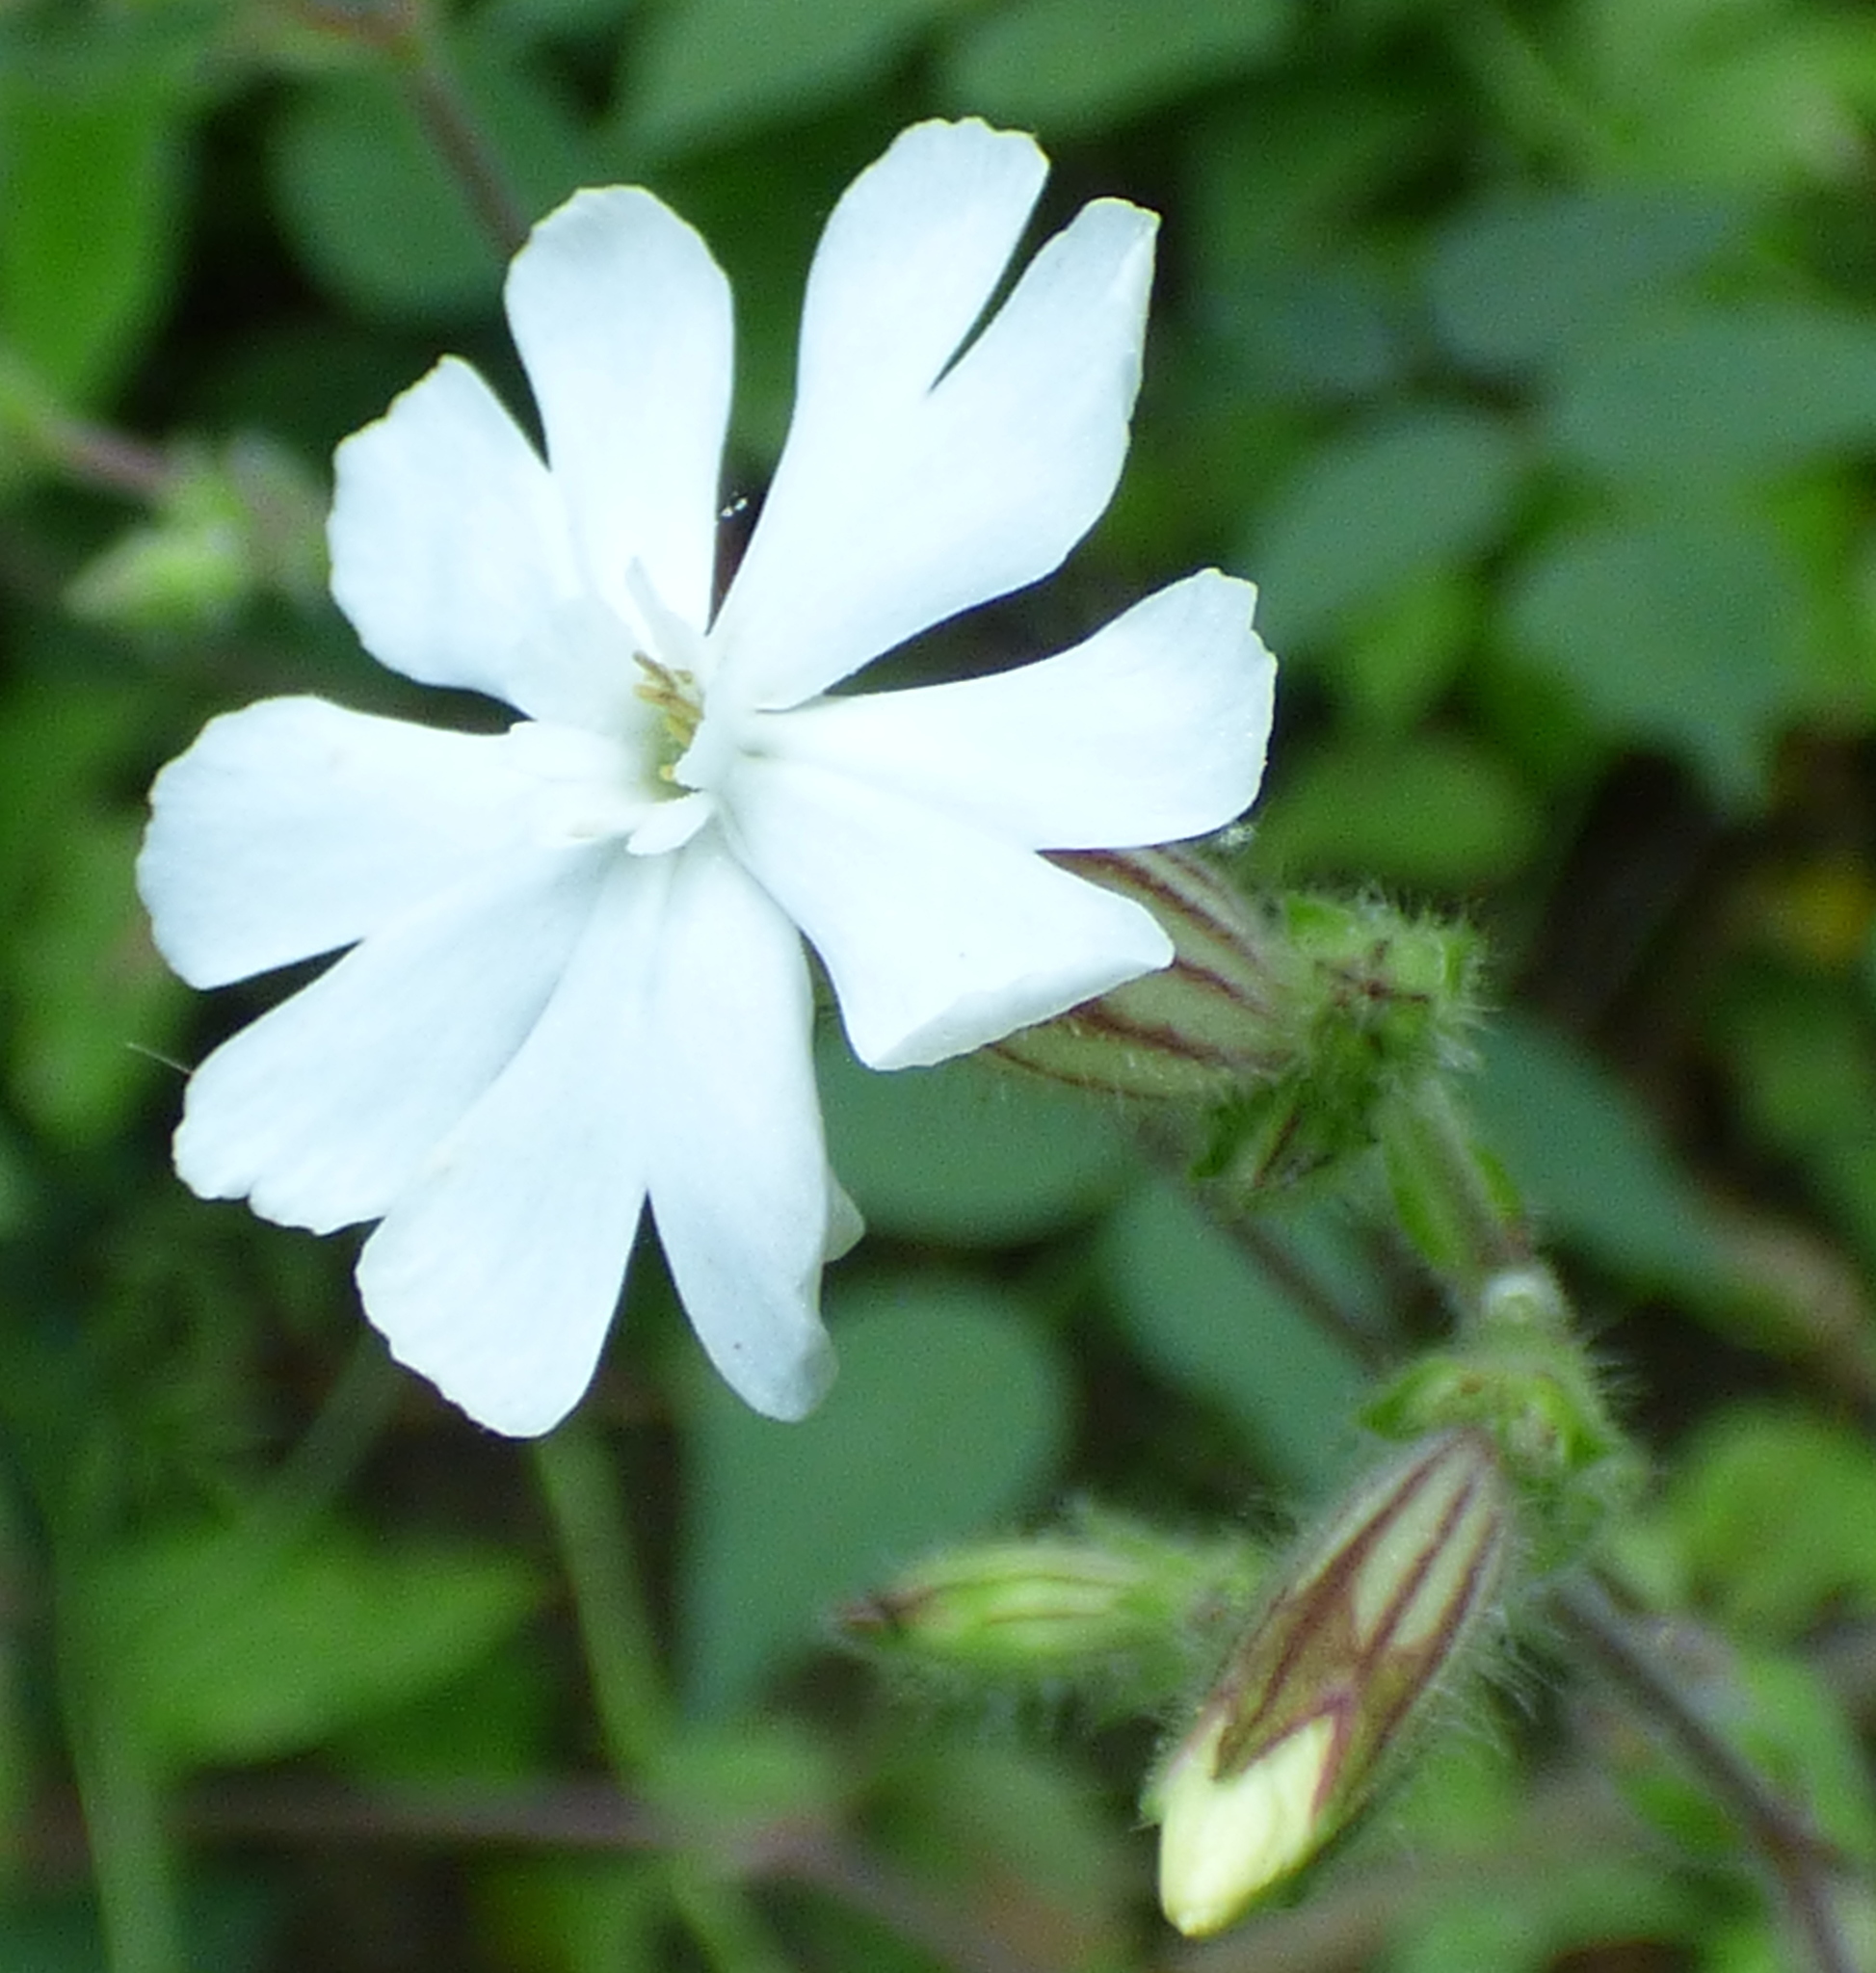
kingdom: Plantae
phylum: Tracheophyta
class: Magnoliopsida
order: Caryophyllales
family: Caryophyllaceae
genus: Silene
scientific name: Silene latifolia
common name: White campion
